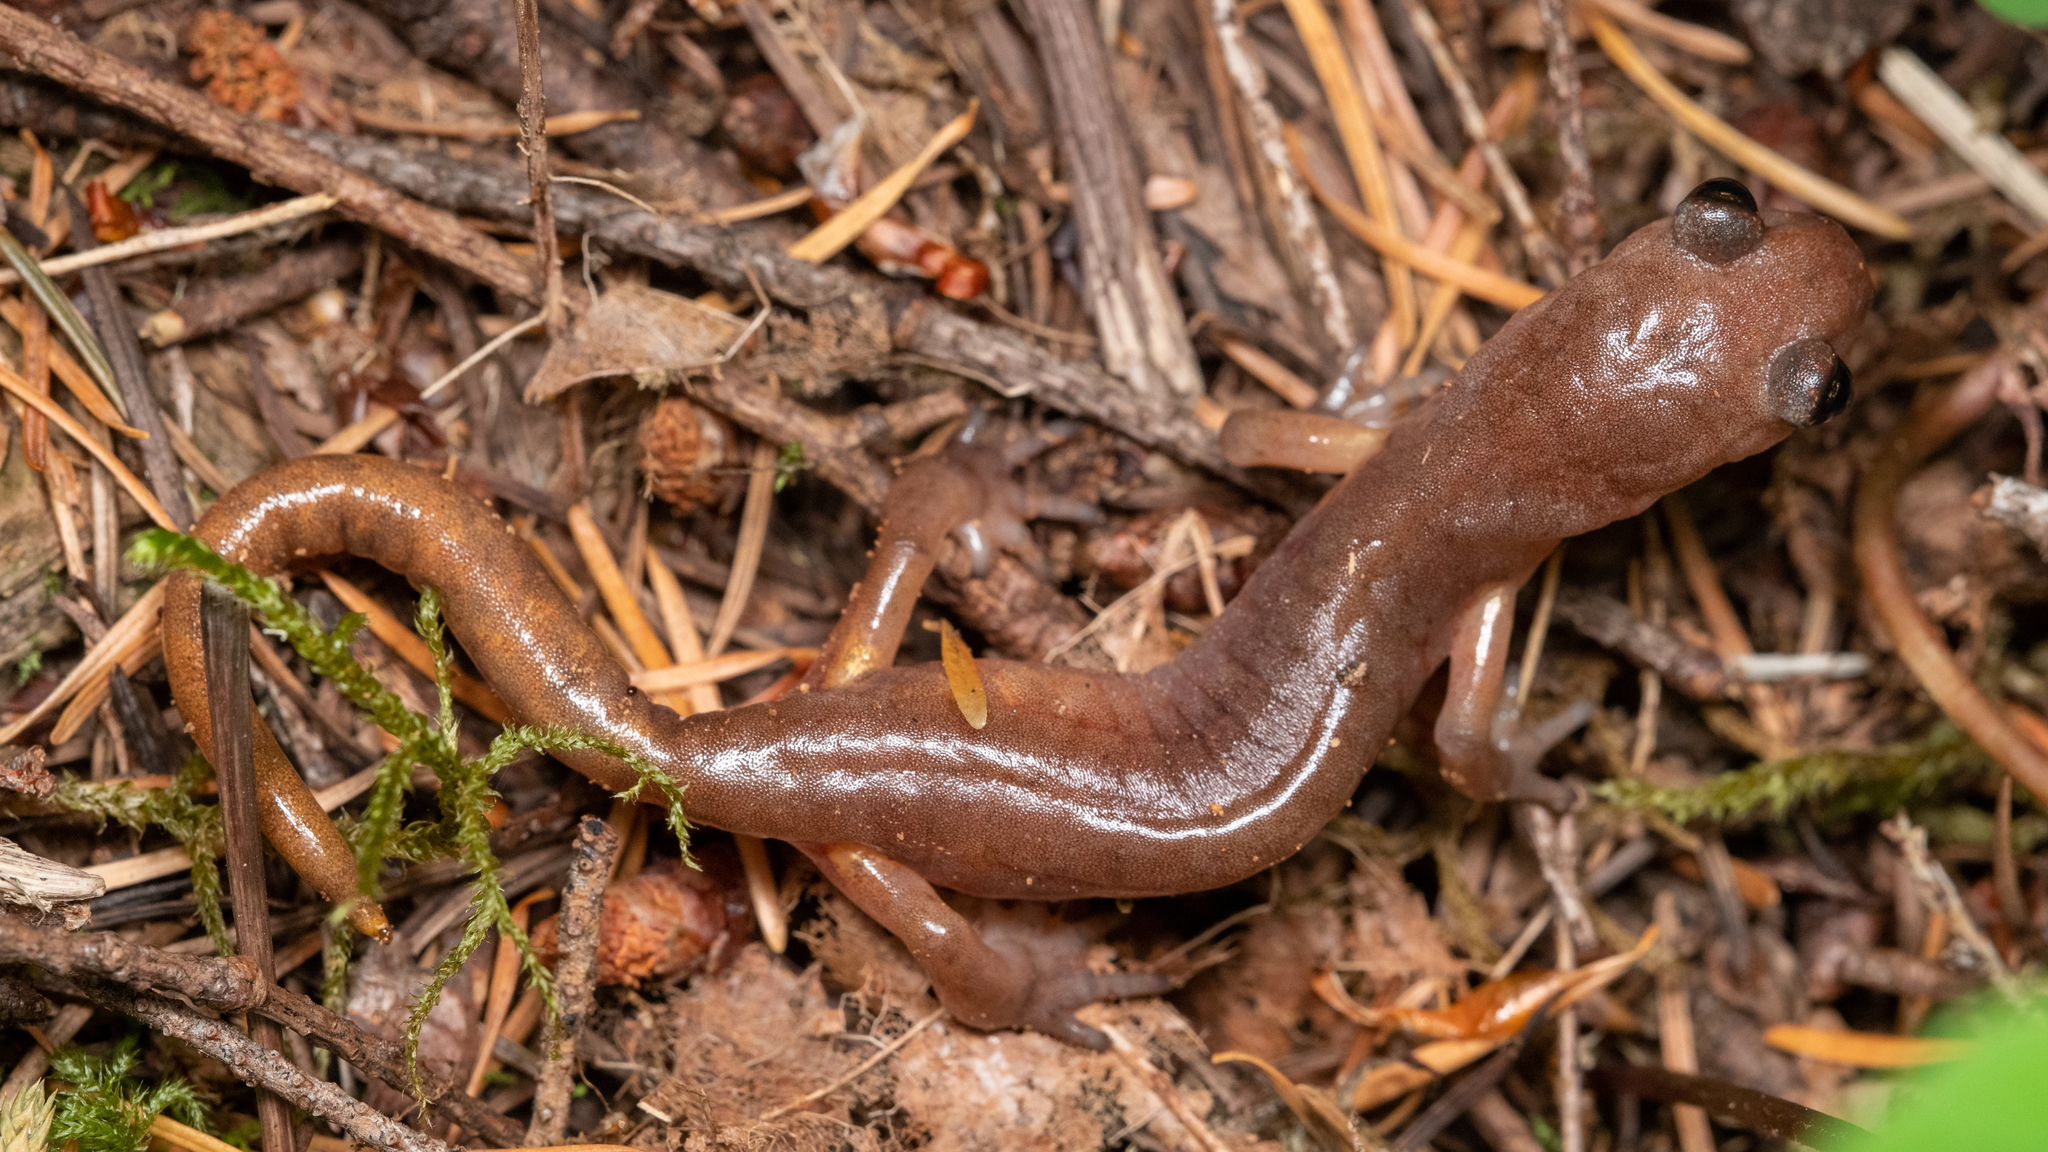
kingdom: Animalia
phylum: Chordata
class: Amphibia
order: Caudata
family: Plethodontidae
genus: Ensatina
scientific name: Ensatina eschscholtzii
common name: Ensatina
